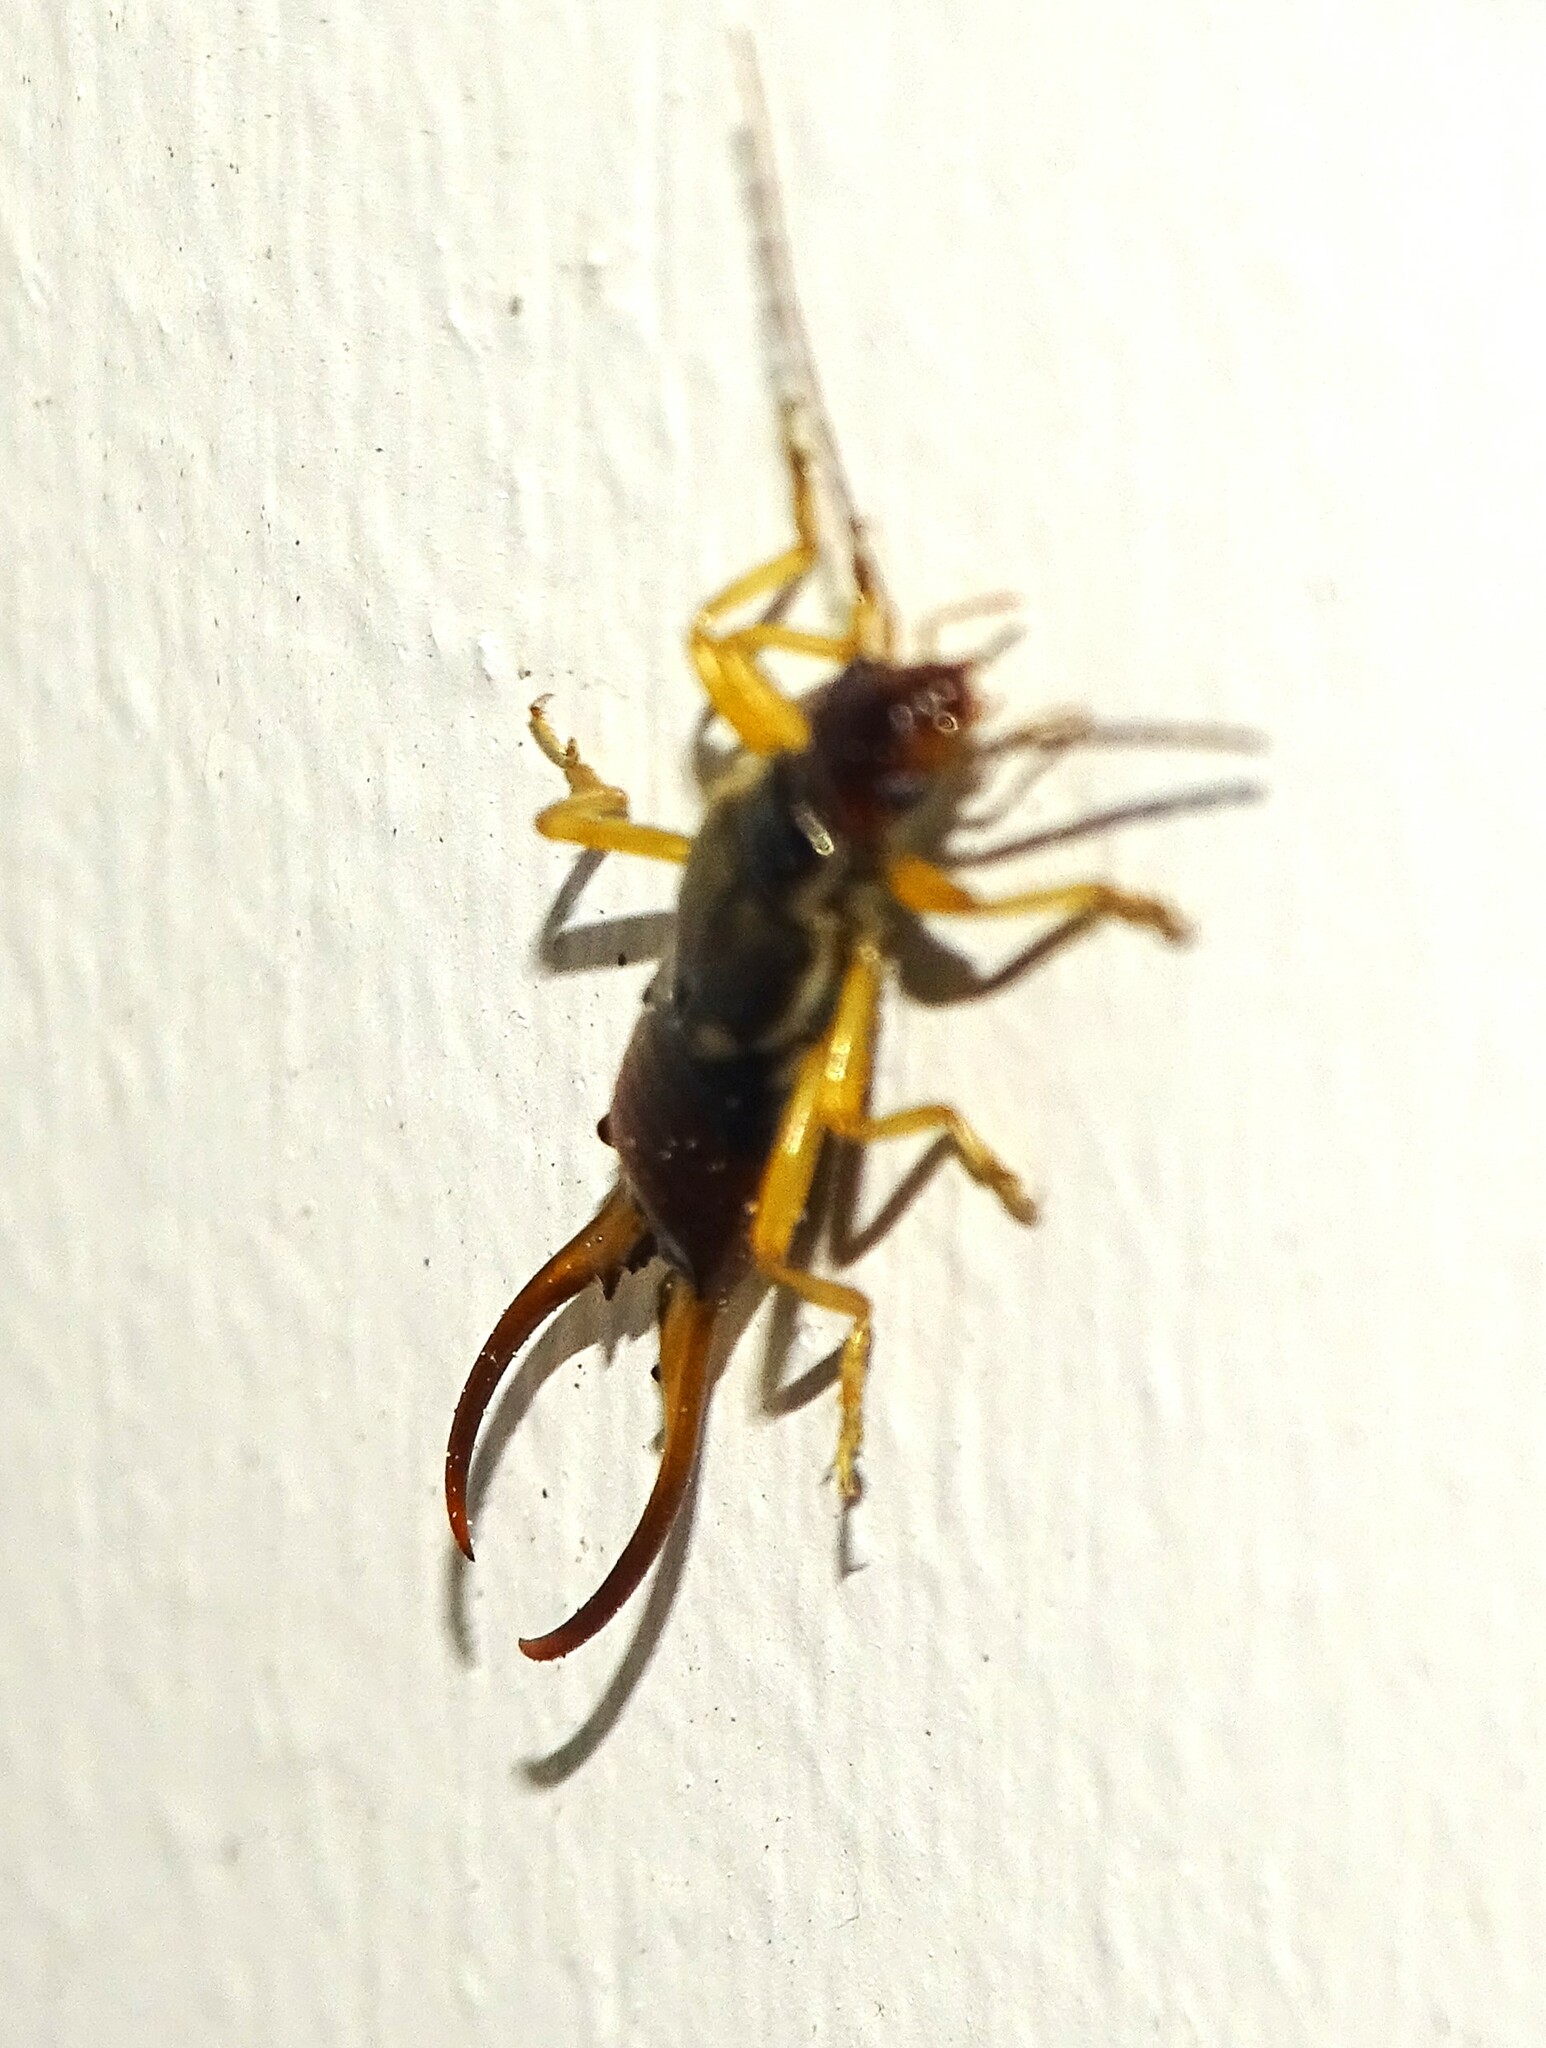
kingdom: Animalia
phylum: Arthropoda
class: Insecta
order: Dermaptera
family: Forficulidae
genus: Forficula
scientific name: Forficula
